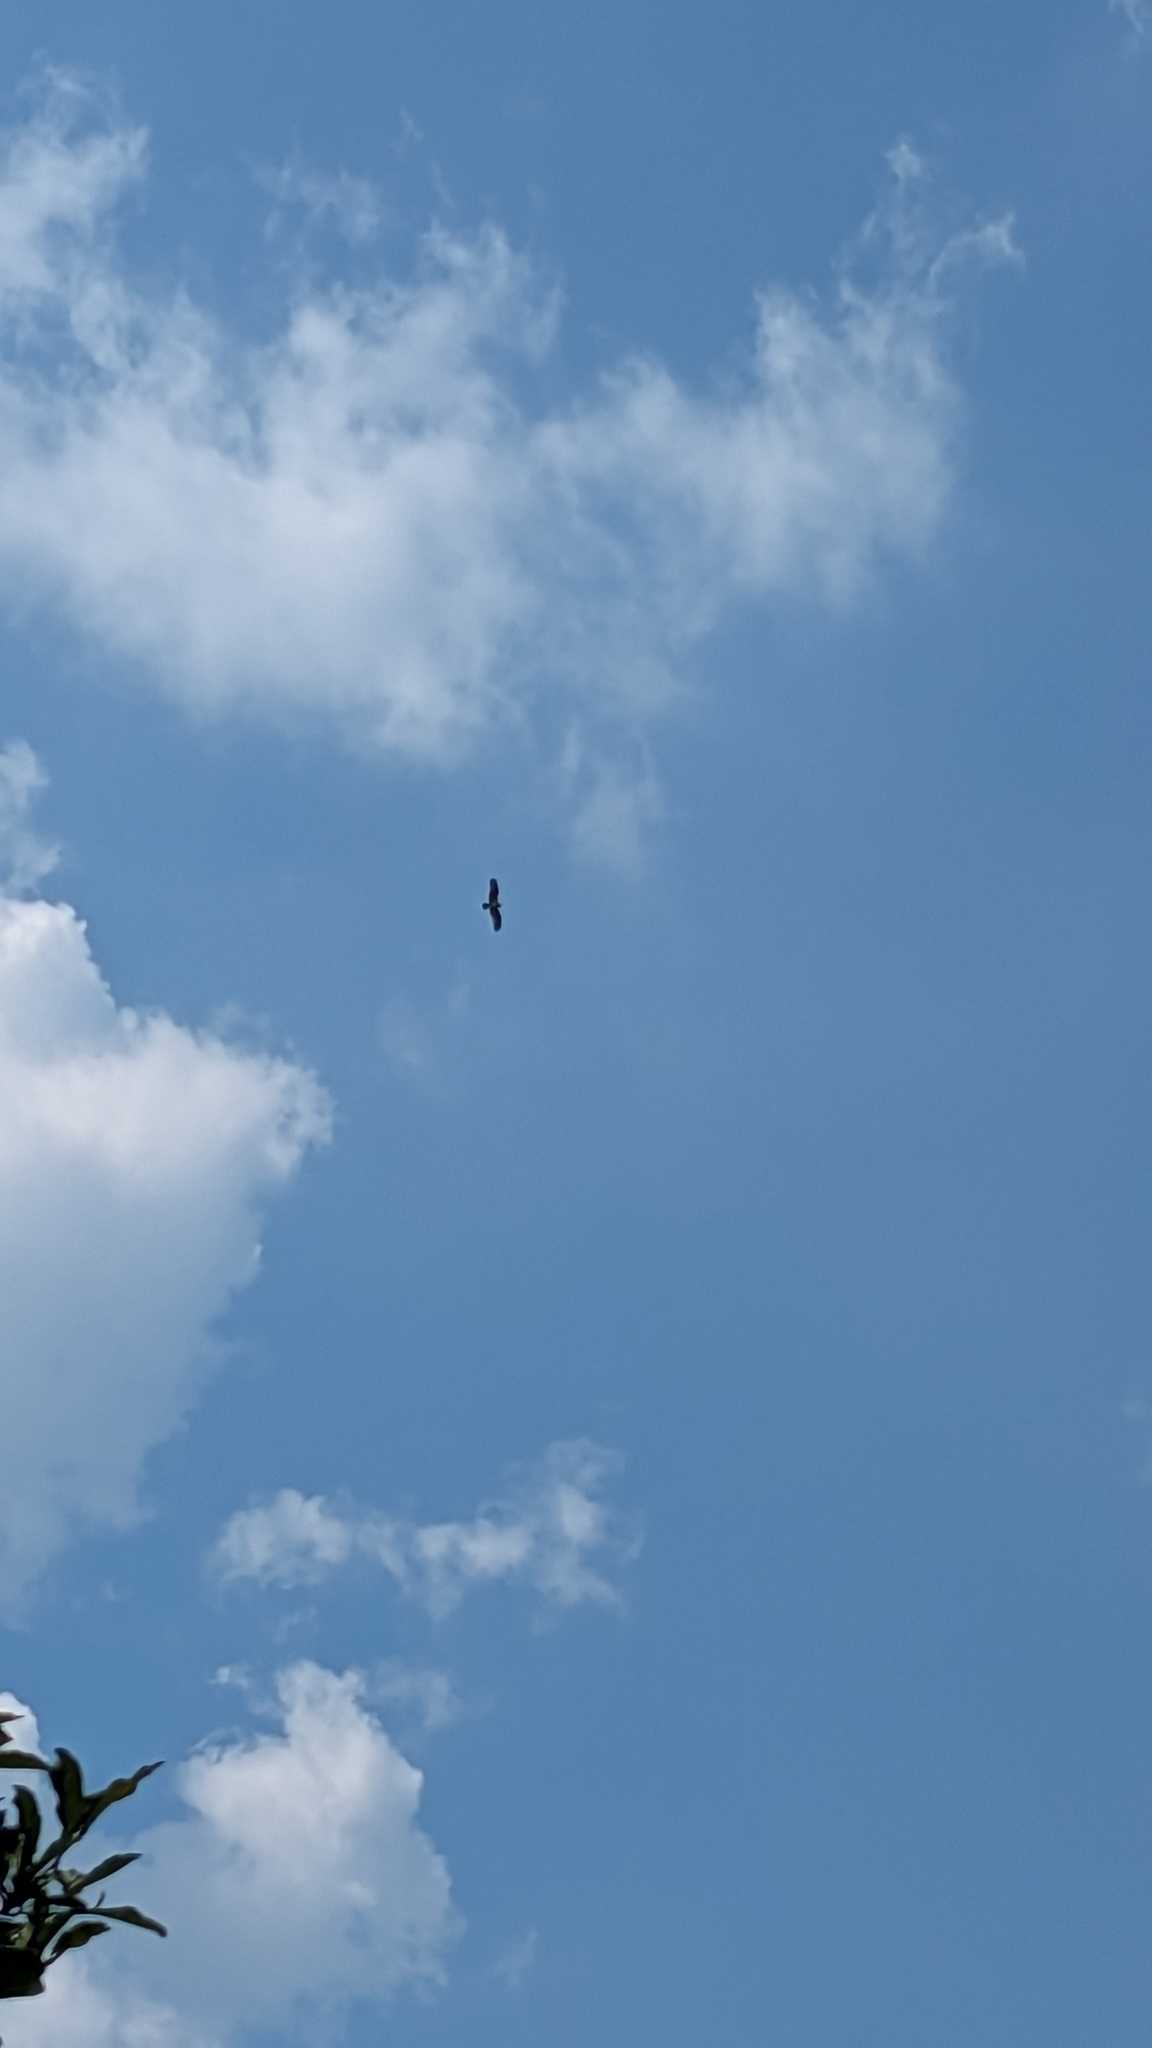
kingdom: Animalia
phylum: Chordata
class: Aves
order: Accipitriformes
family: Pandionidae
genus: Pandion
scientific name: Pandion haliaetus
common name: Osprey
